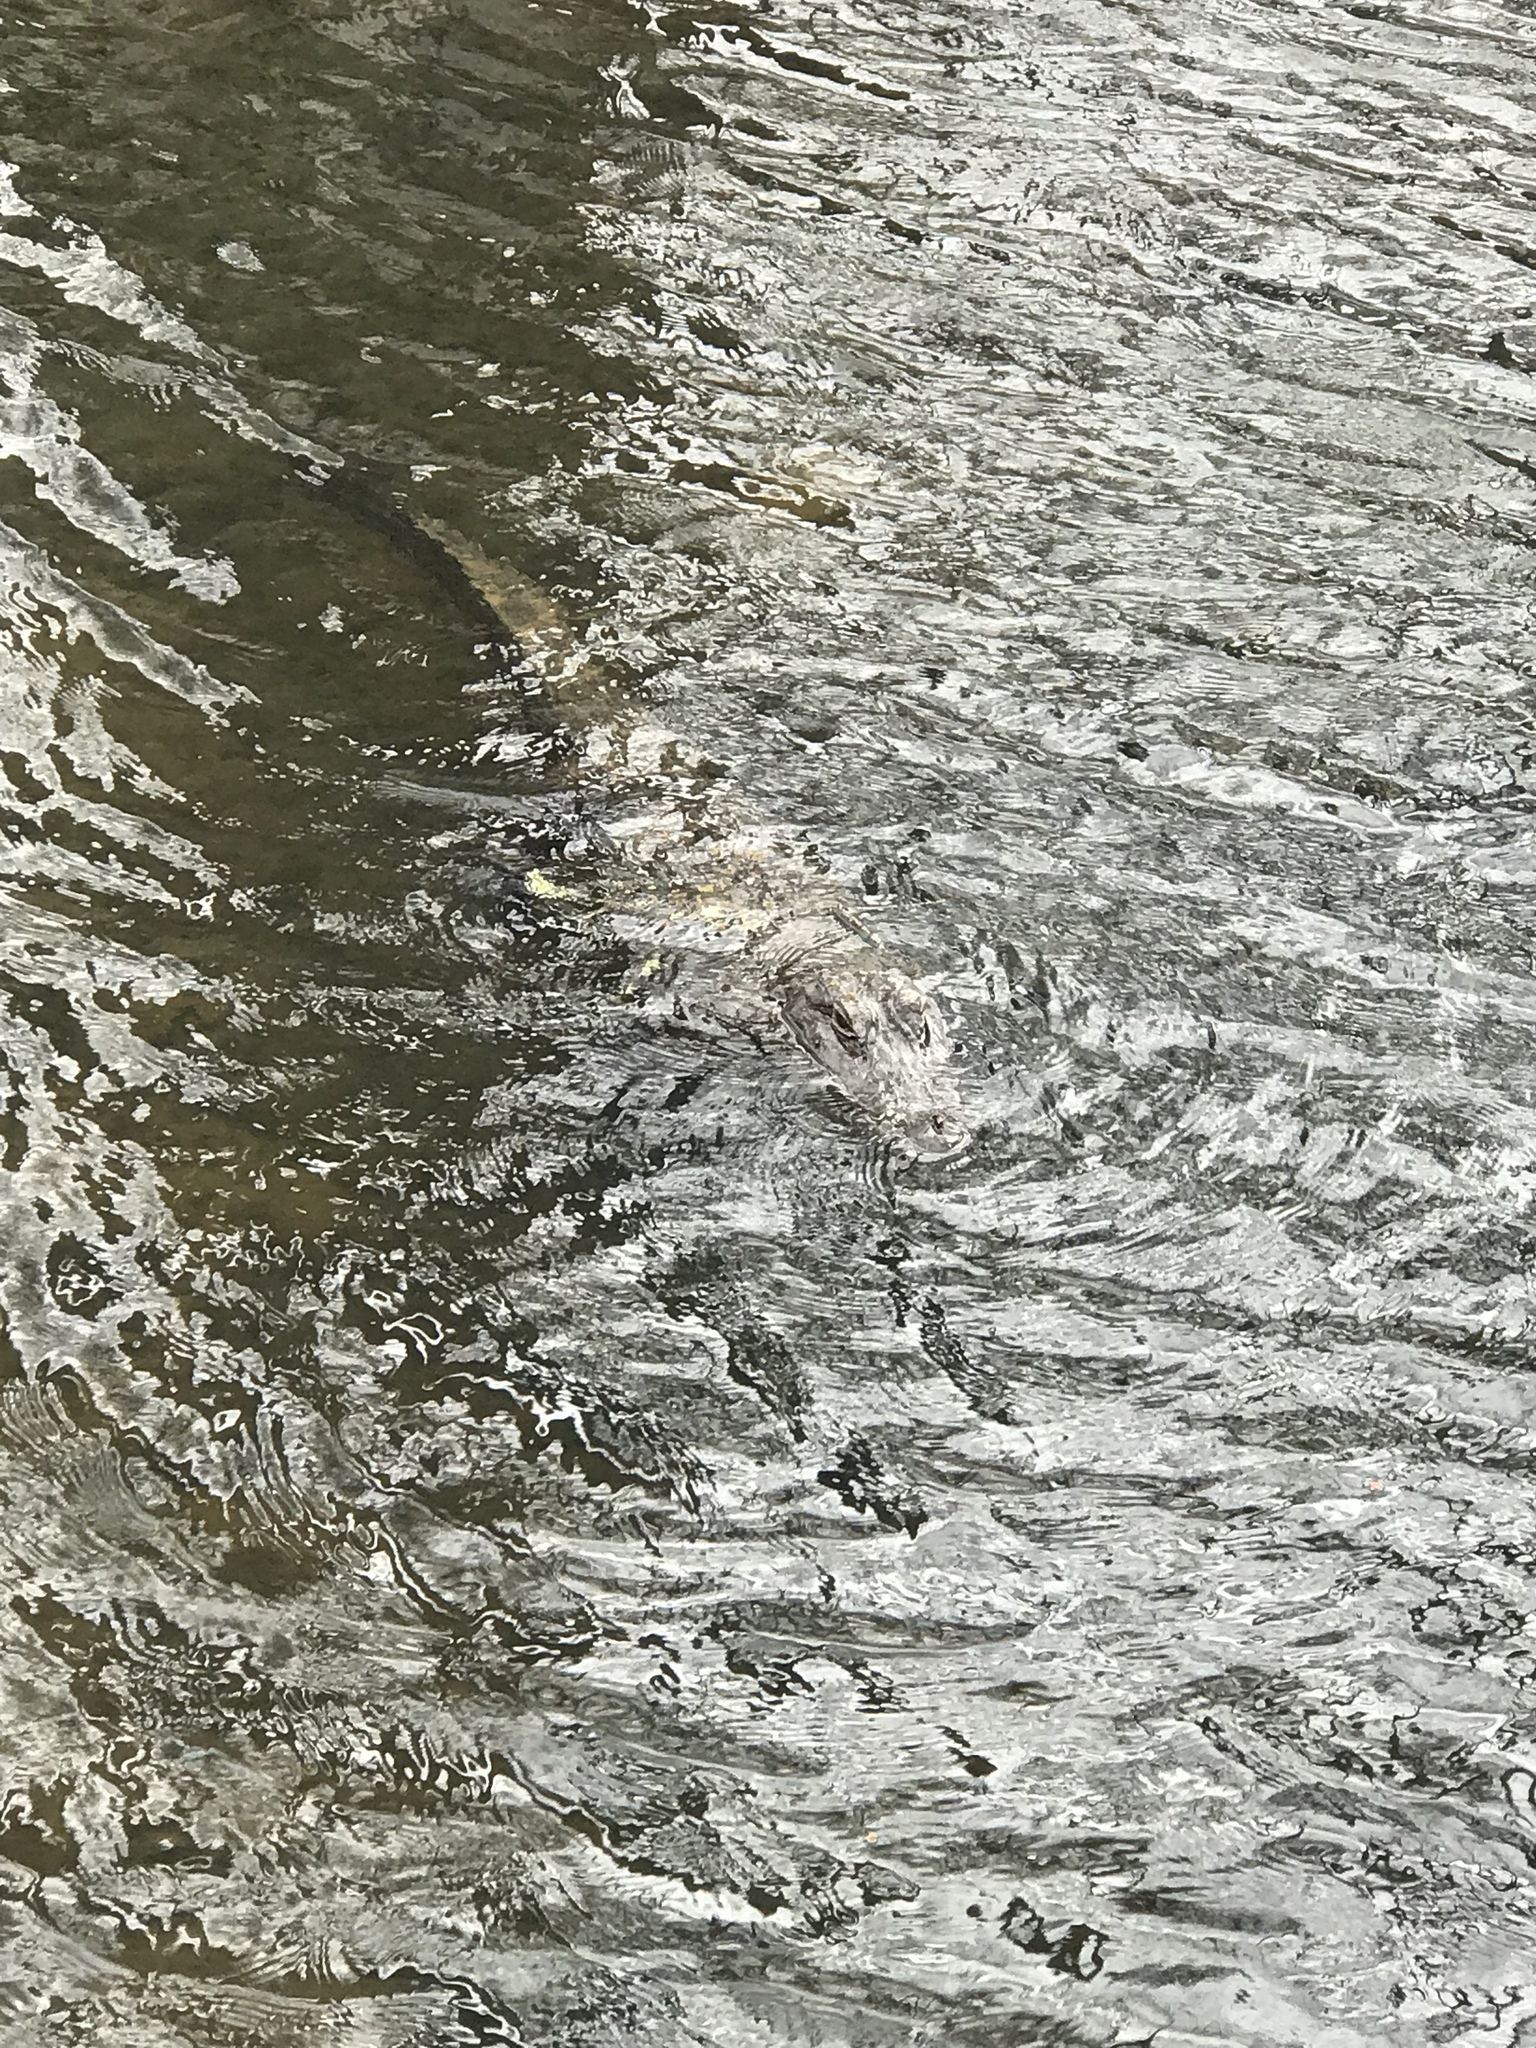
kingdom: Animalia
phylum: Chordata
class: Crocodylia
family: Alligatoridae
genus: Alligator
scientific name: Alligator mississippiensis
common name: American alligator
